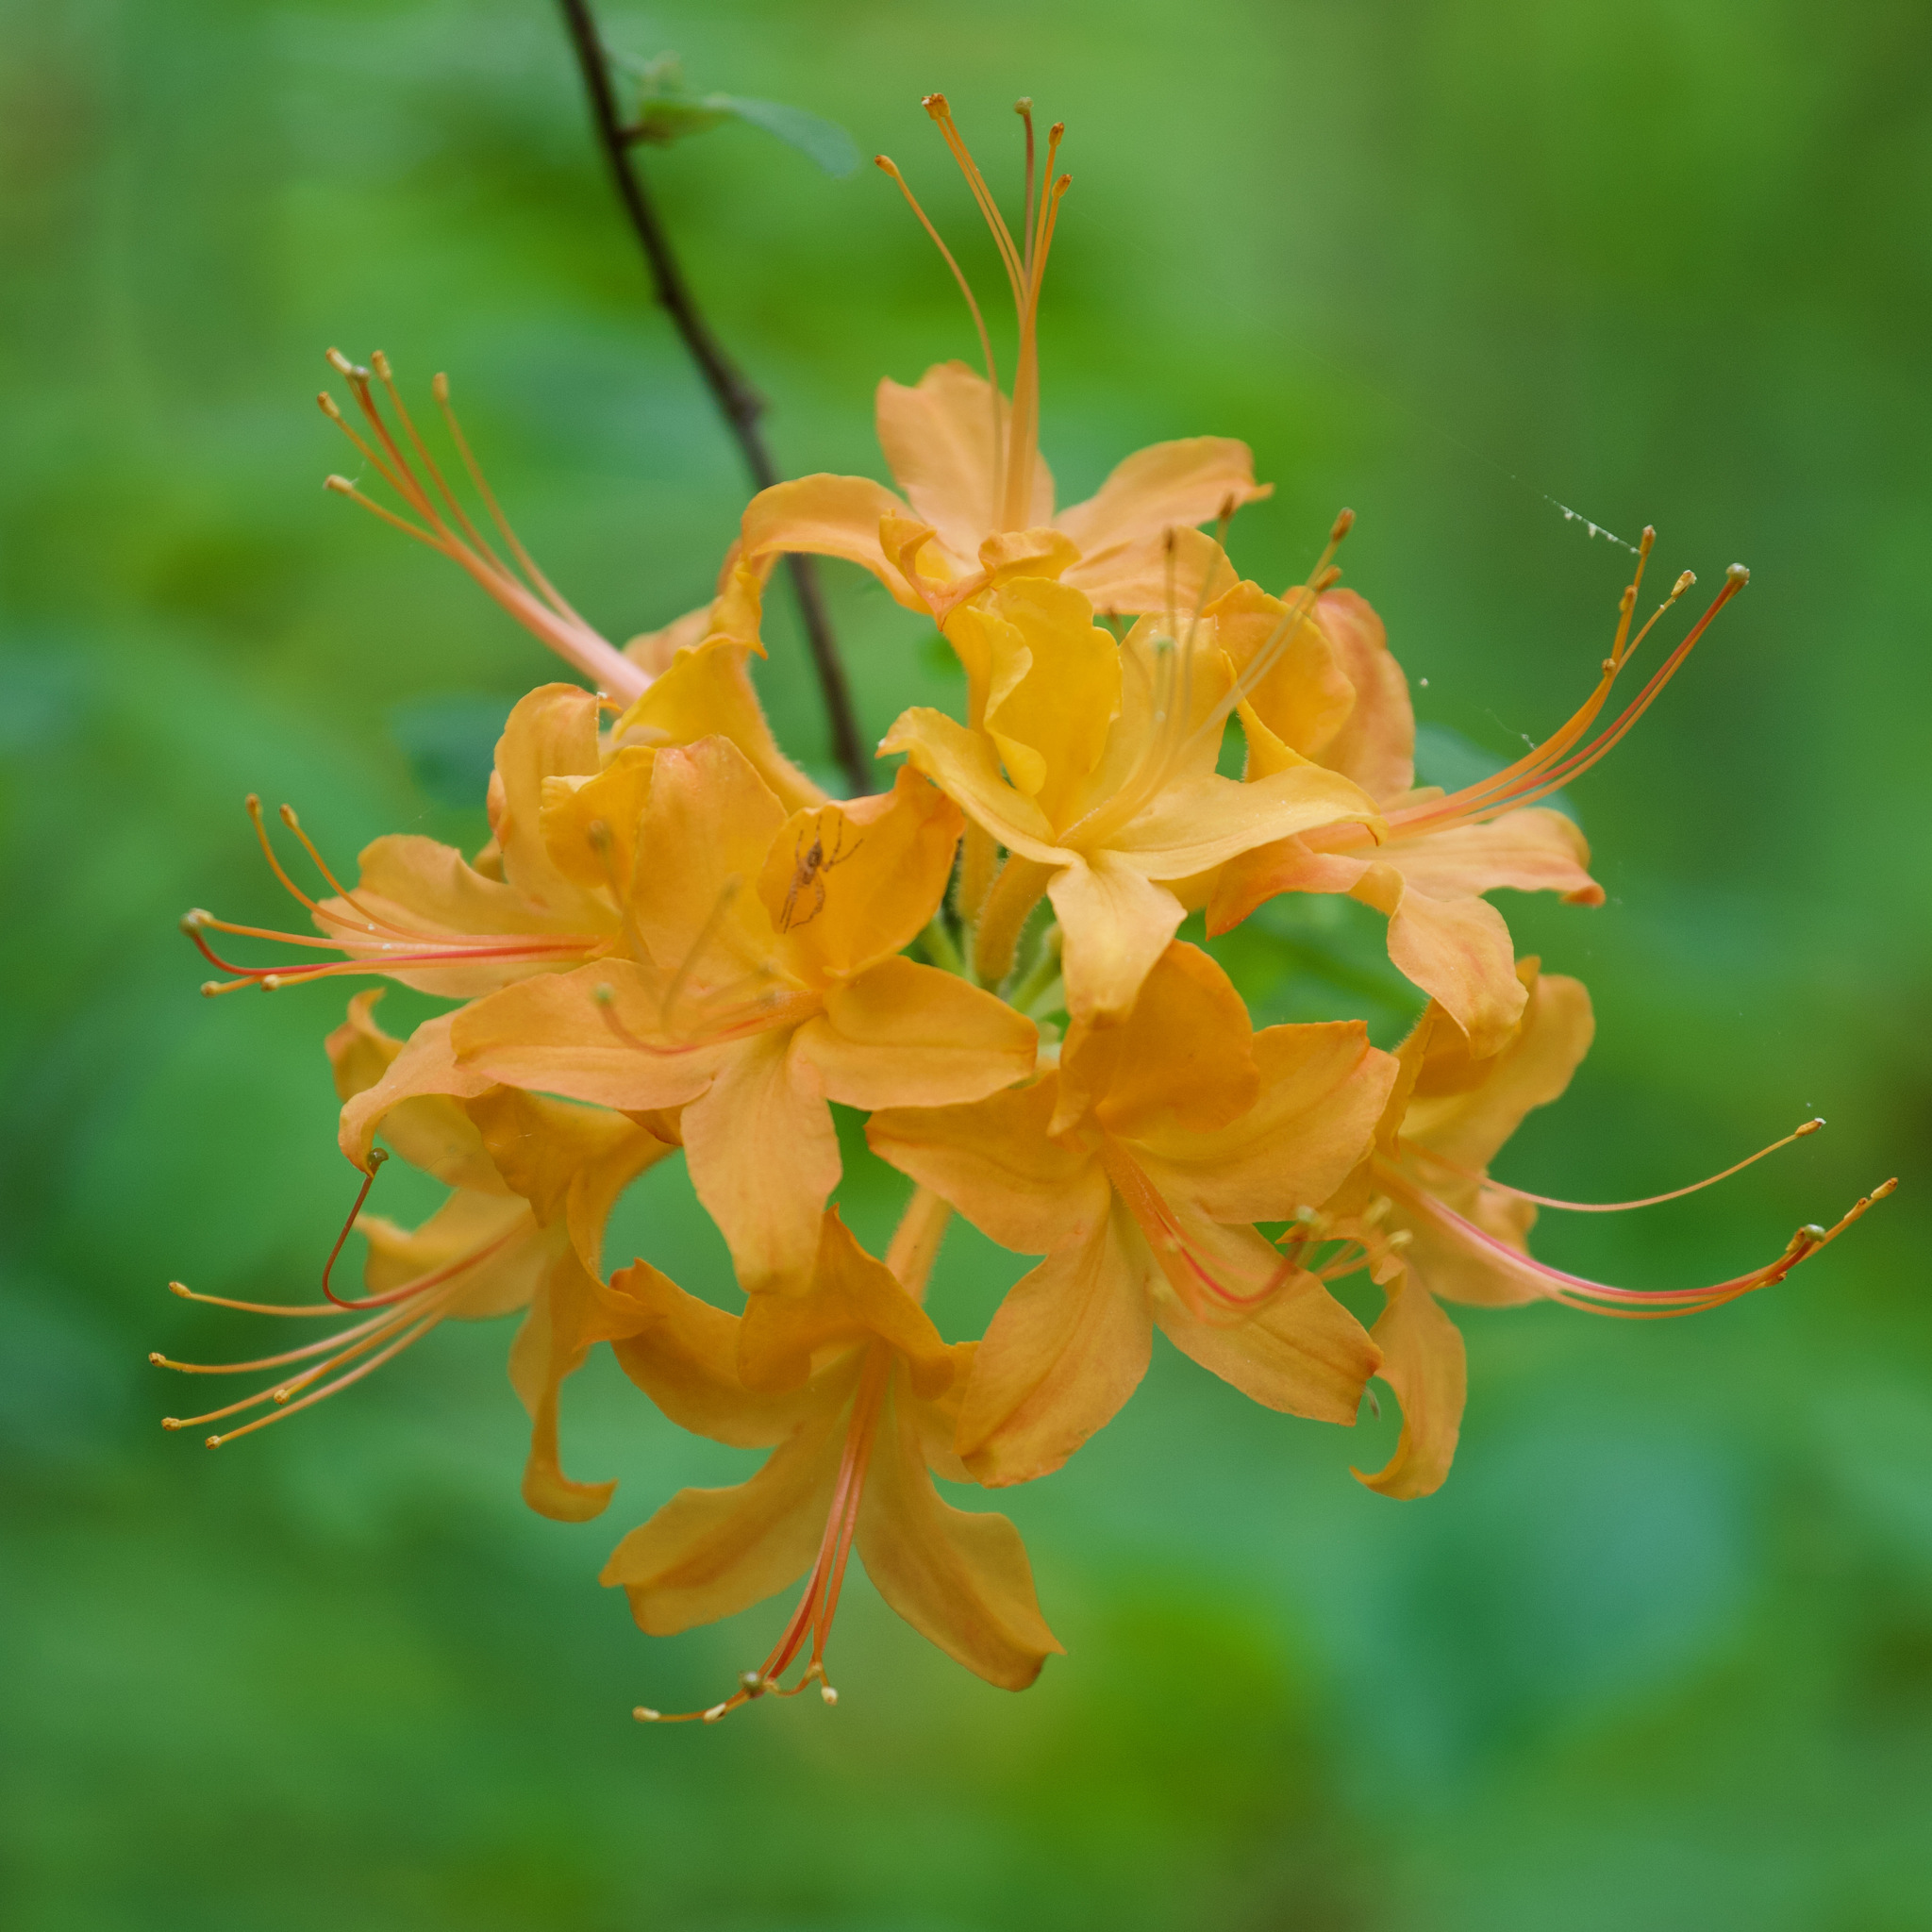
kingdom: Plantae
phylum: Tracheophyta
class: Magnoliopsida
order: Ericales
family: Ericaceae
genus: Rhododendron
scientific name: Rhododendron calendulaceum
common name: Flame azalea
